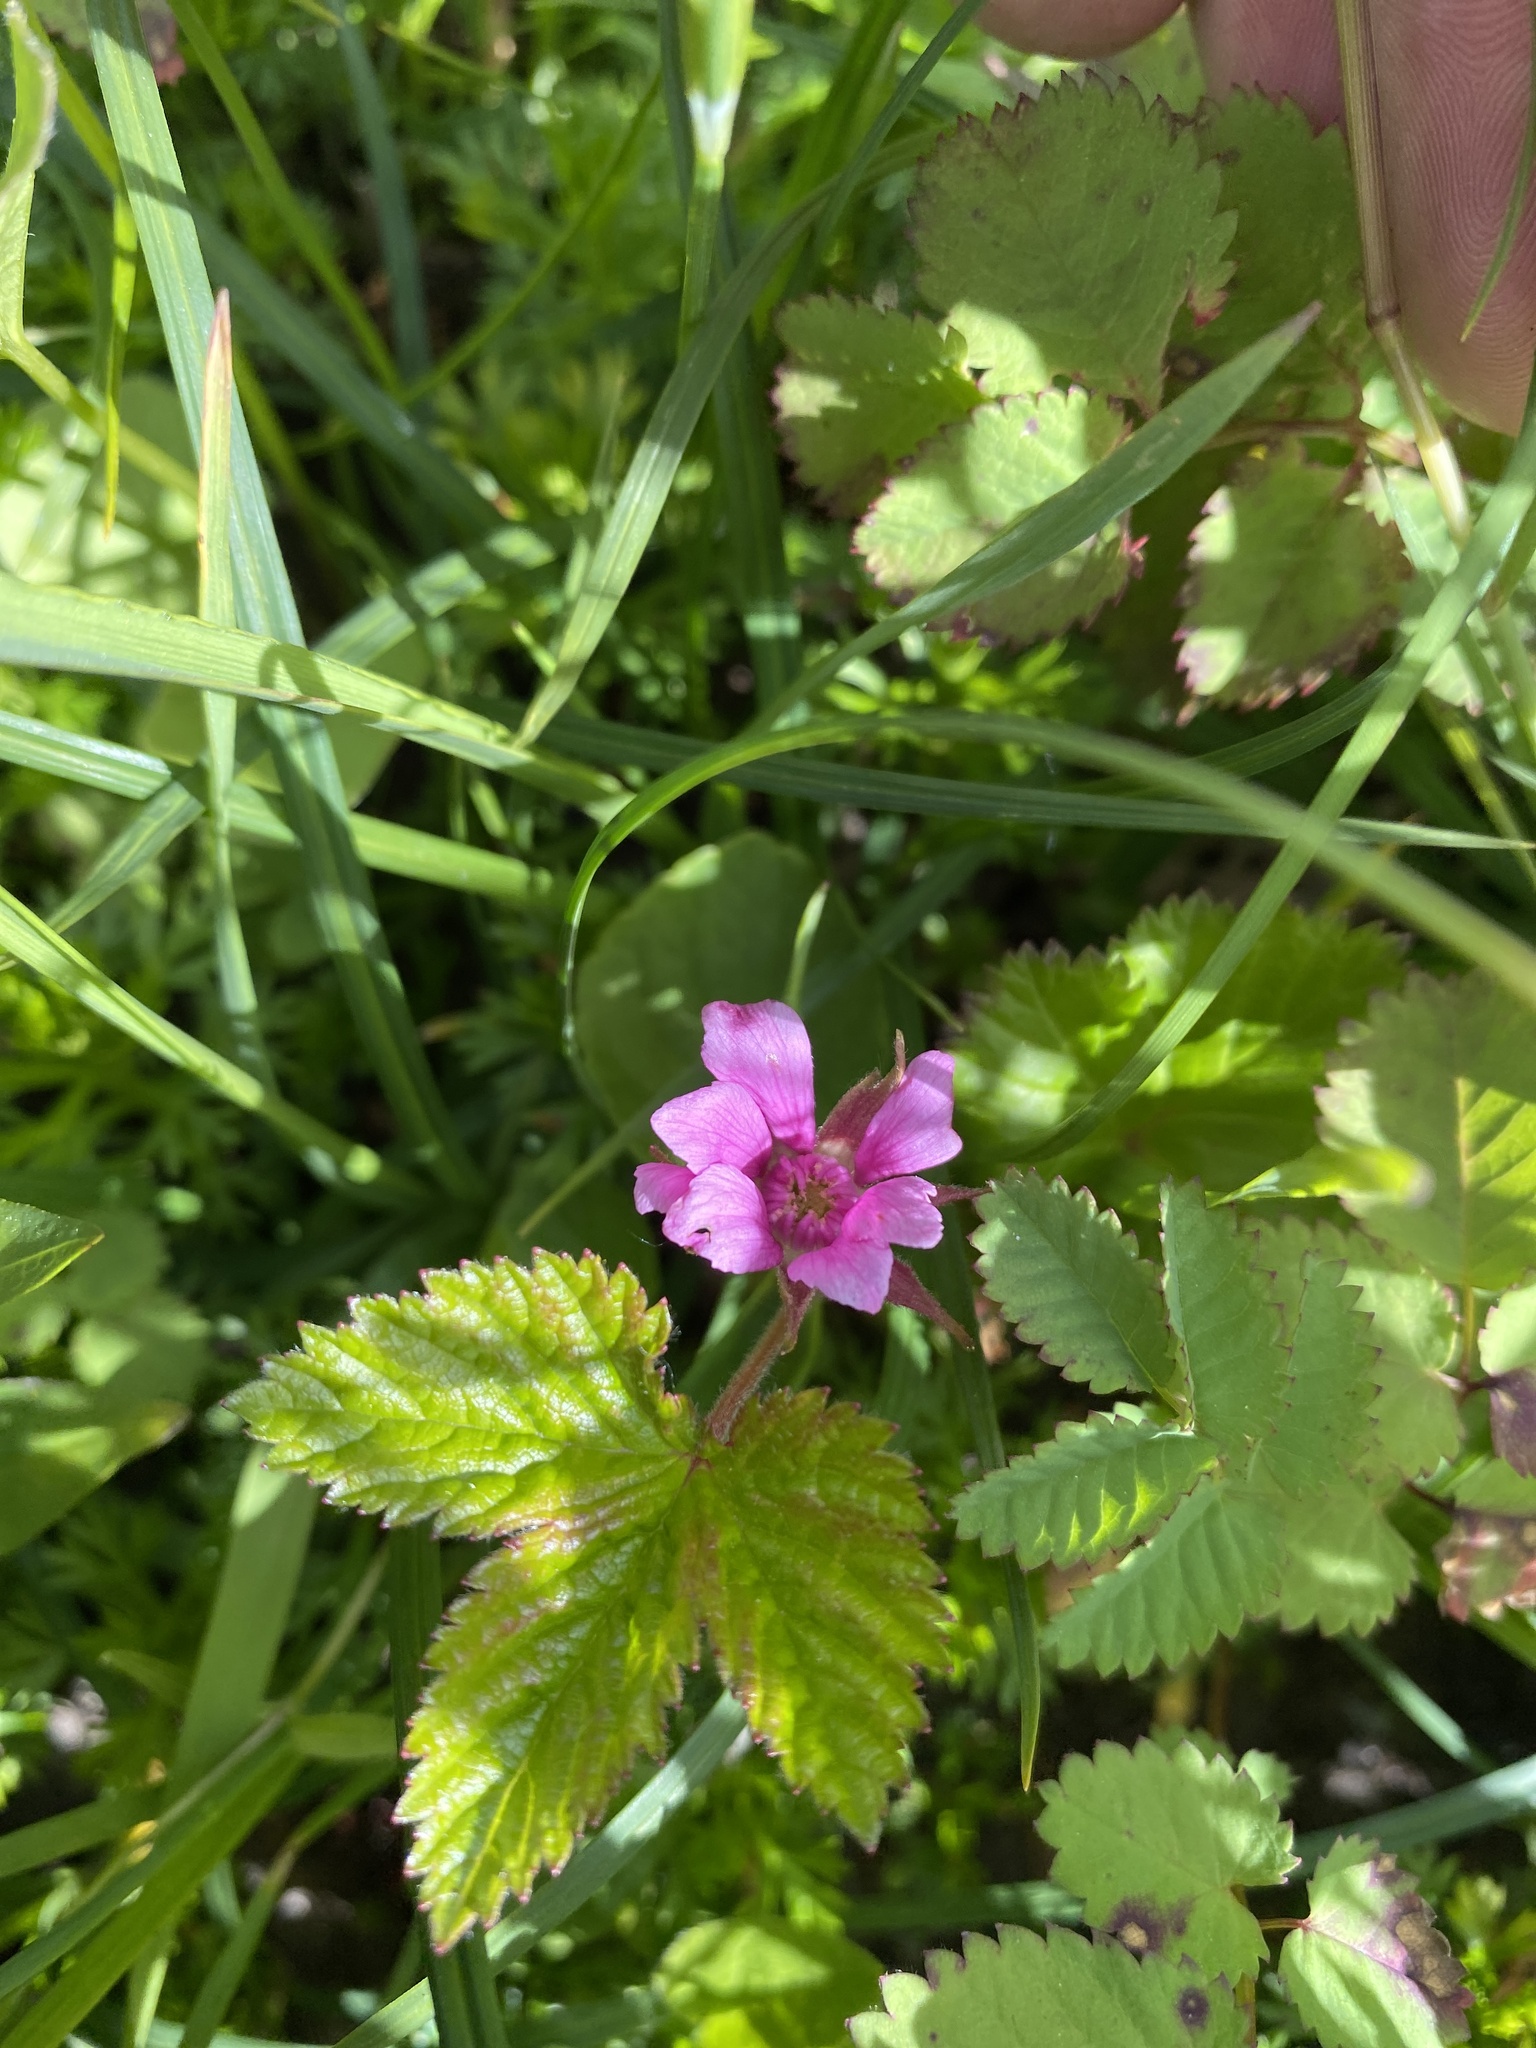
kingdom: Plantae
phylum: Tracheophyta
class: Magnoliopsida
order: Rosales
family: Rosaceae
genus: Rubus
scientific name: Rubus arcticus
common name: Arctic bramble
